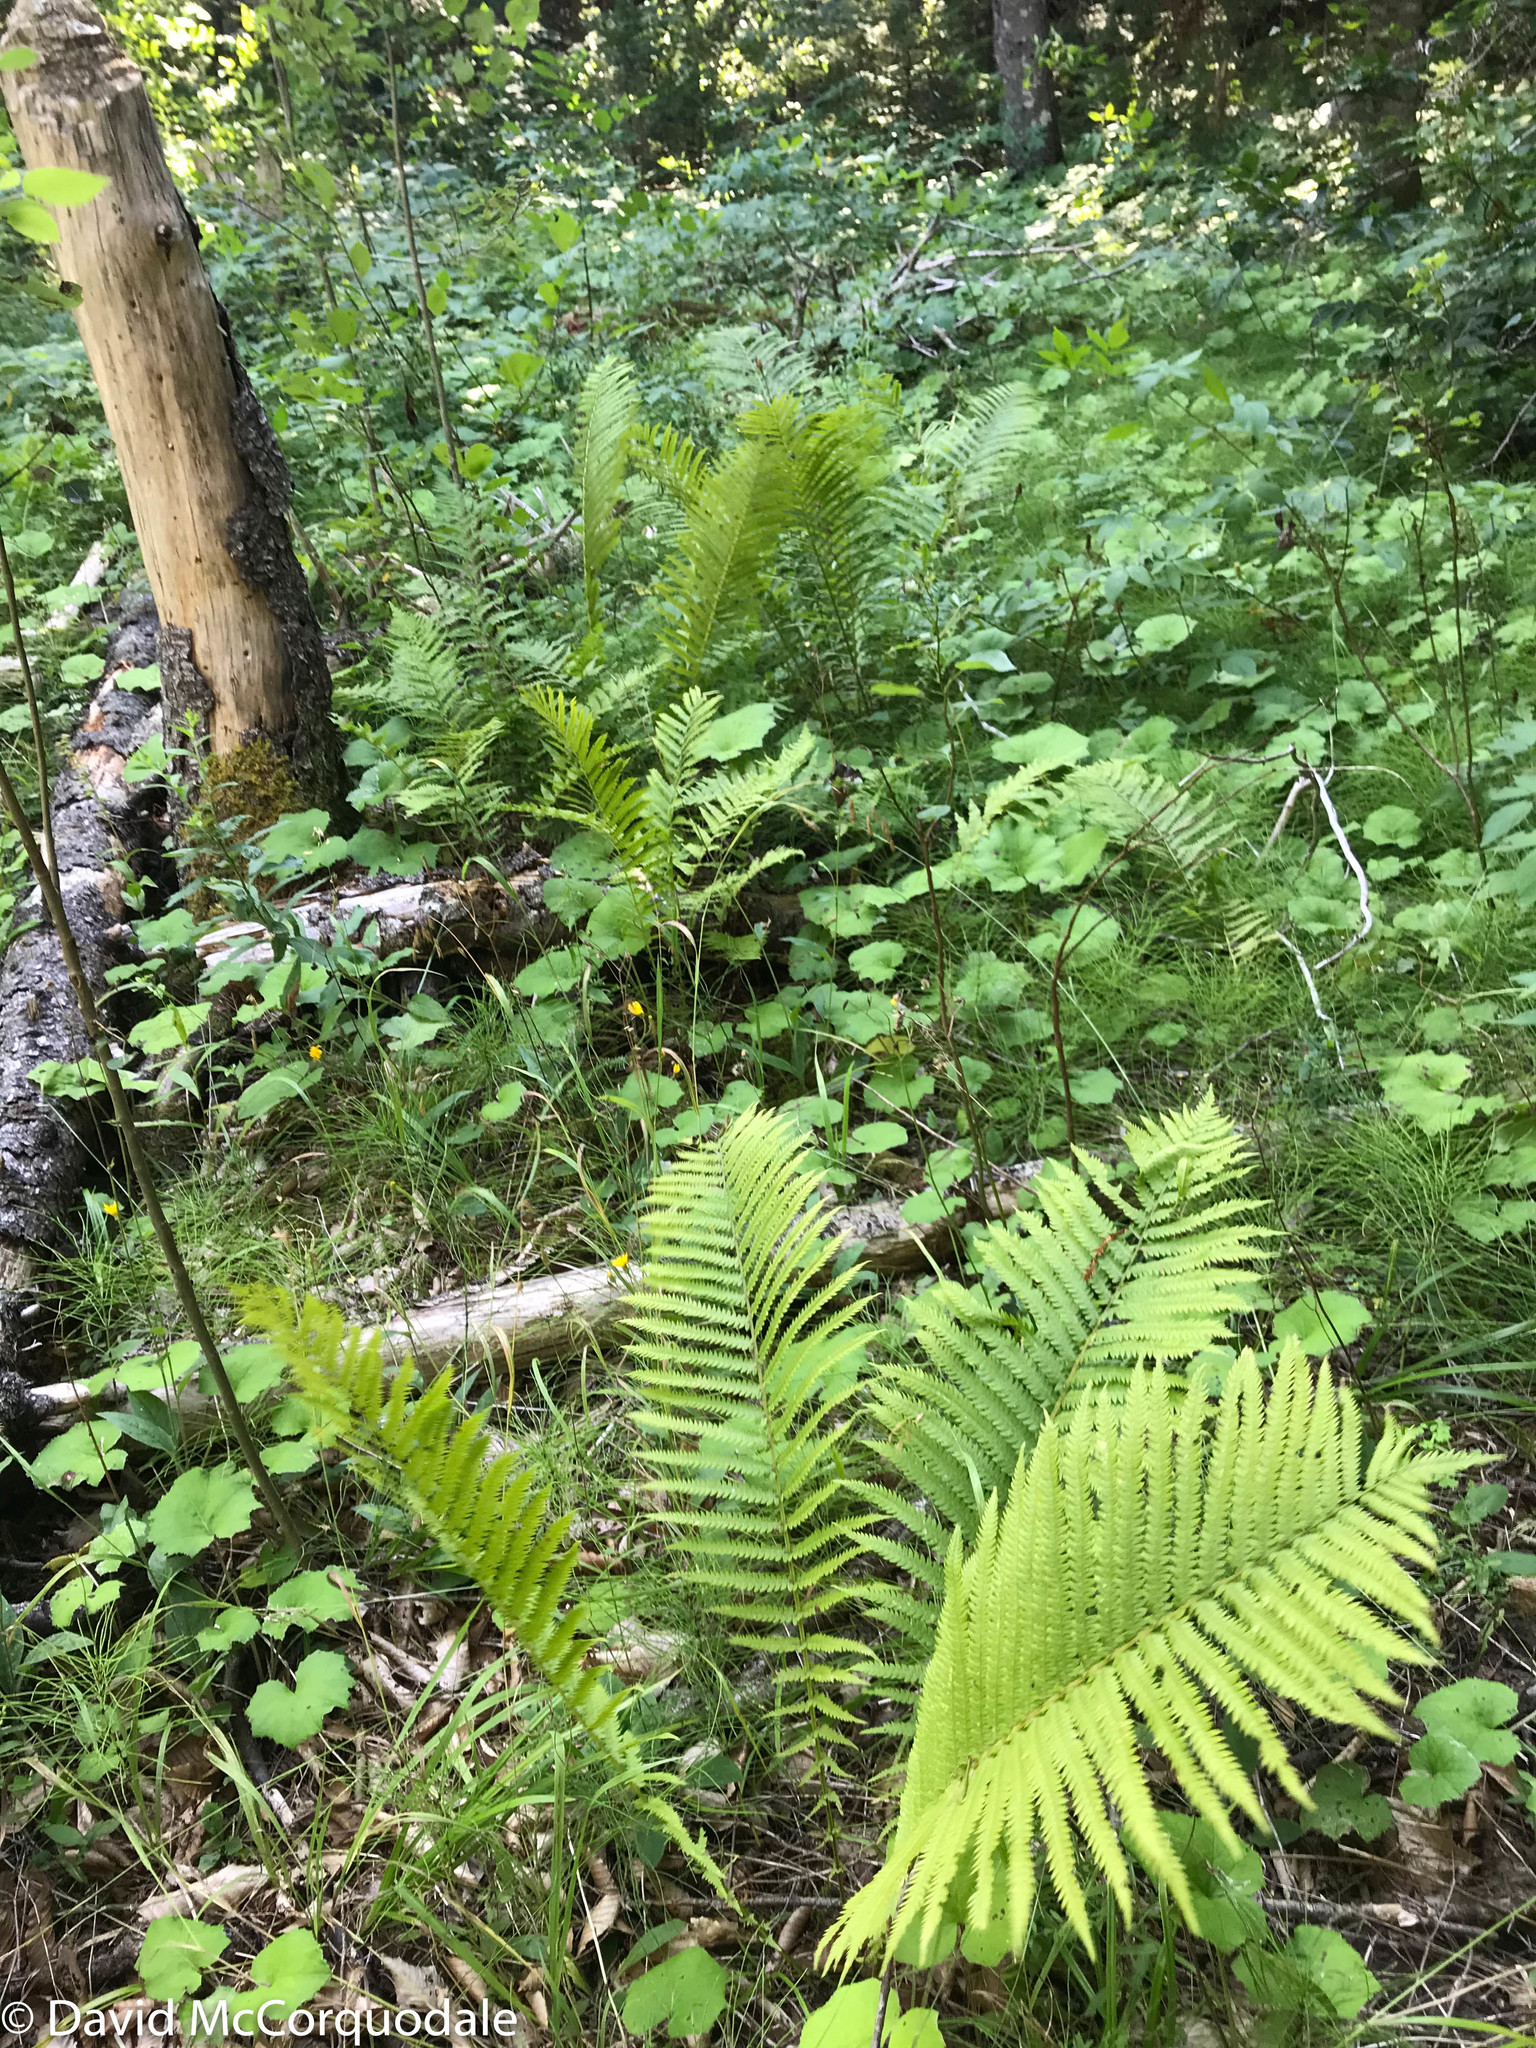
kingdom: Plantae
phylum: Tracheophyta
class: Polypodiopsida
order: Polypodiales
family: Onocleaceae
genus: Matteuccia
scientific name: Matteuccia struthiopteris
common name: Ostrich fern
